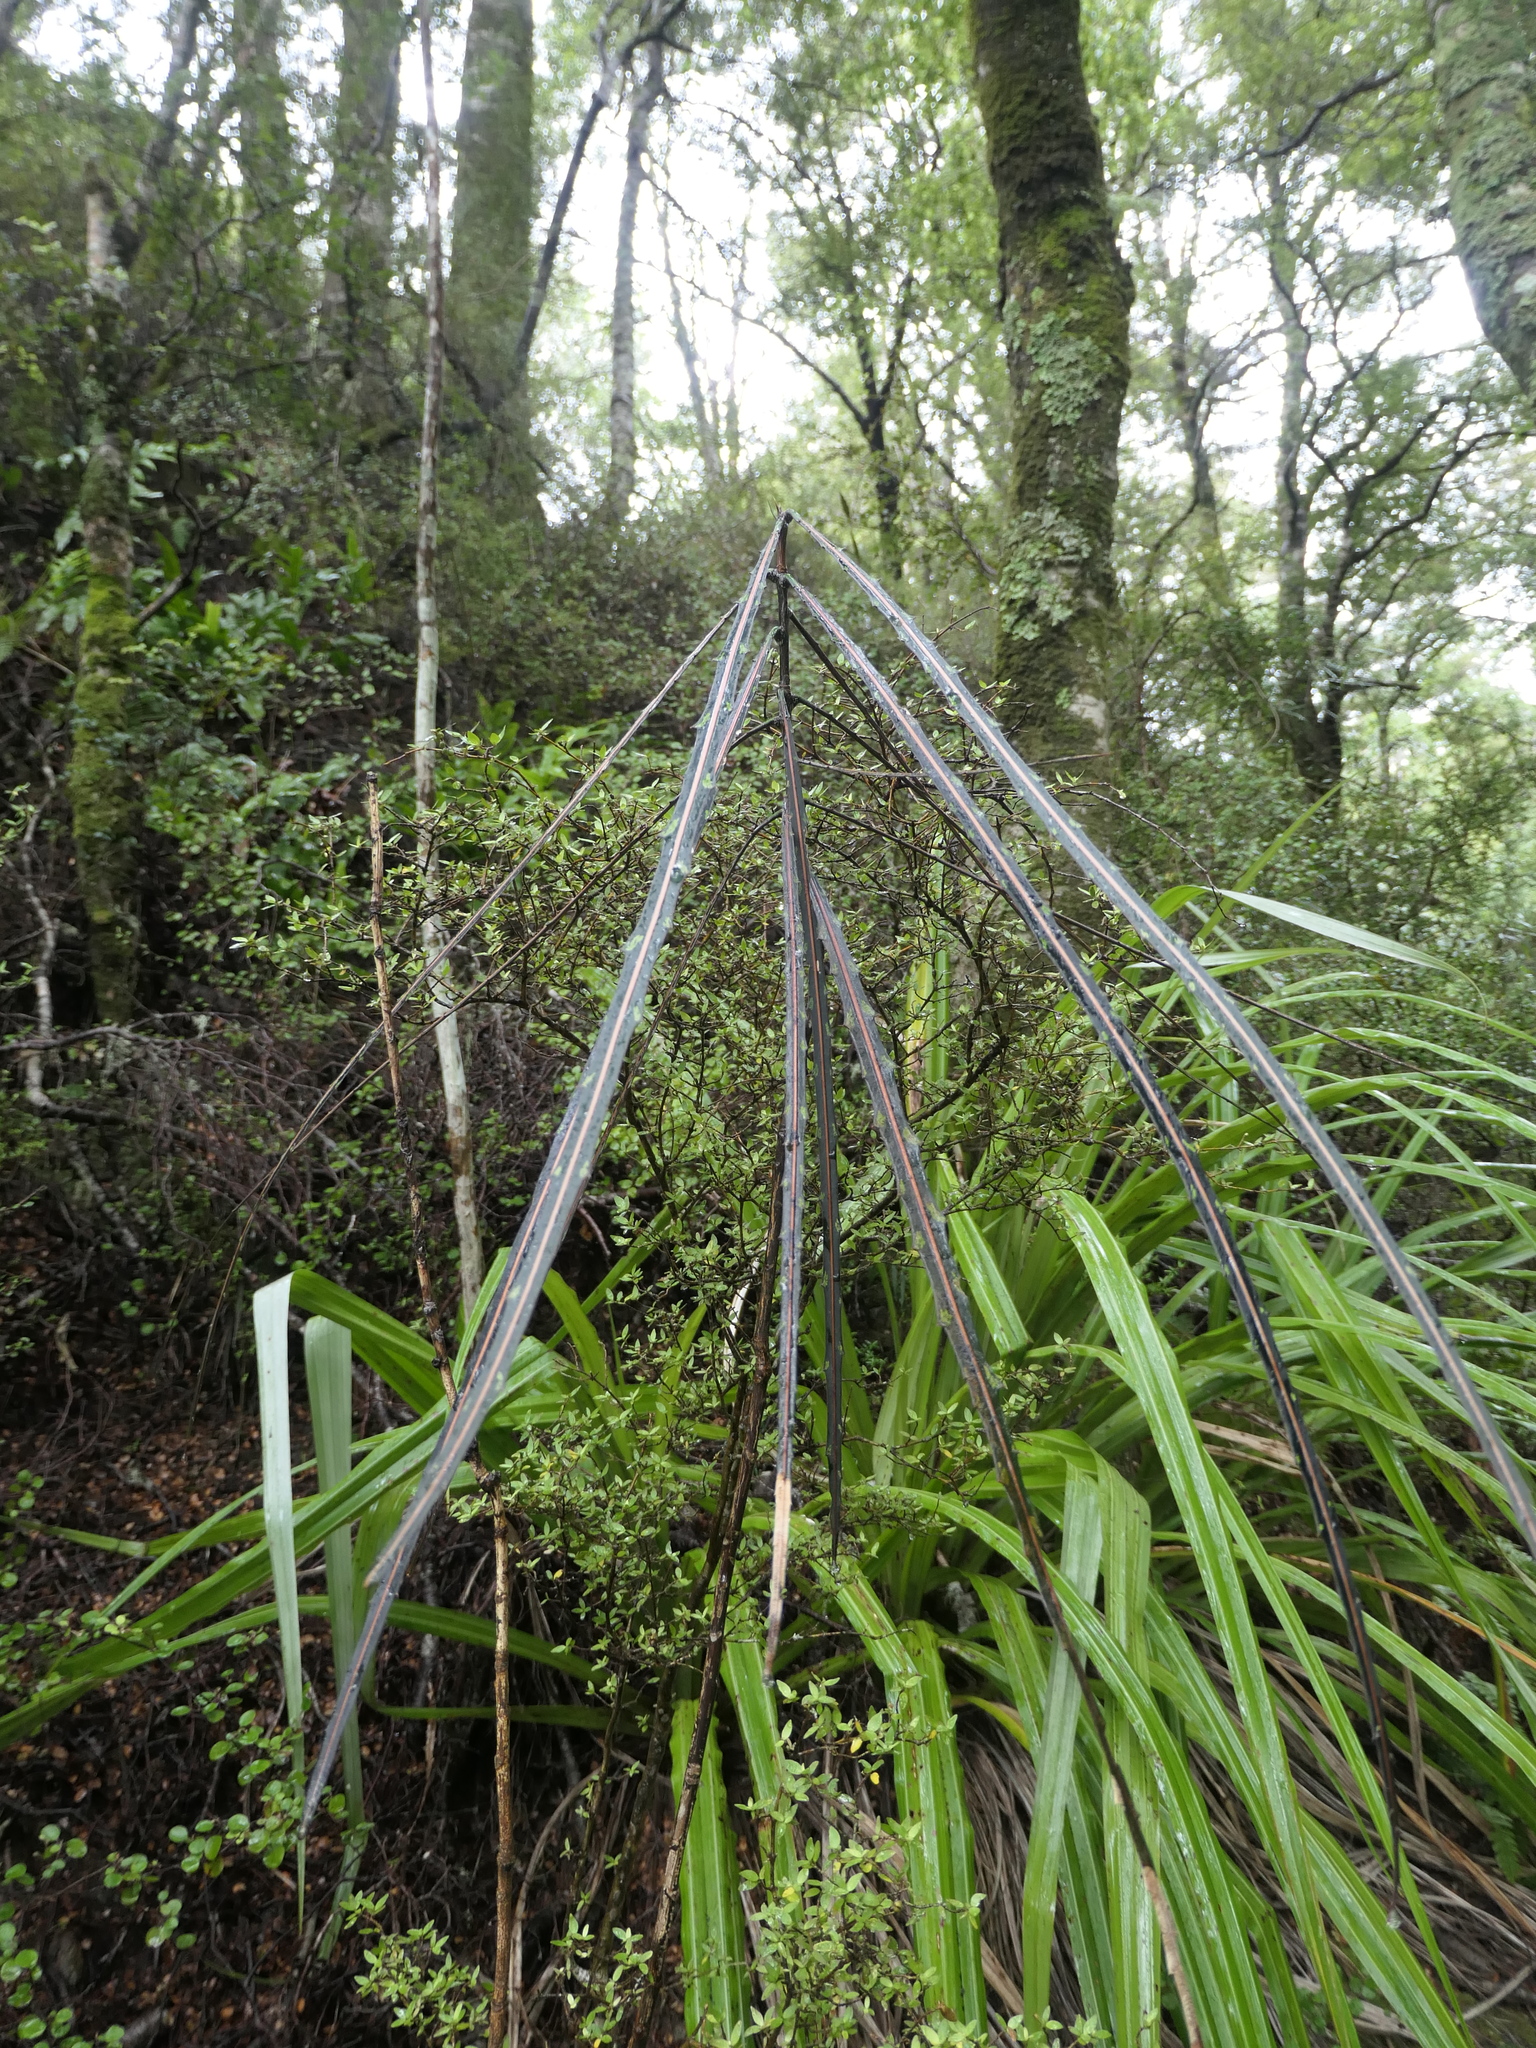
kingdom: Plantae
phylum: Tracheophyta
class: Magnoliopsida
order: Apiales
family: Araliaceae
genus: Pseudopanax
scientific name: Pseudopanax crassifolius
